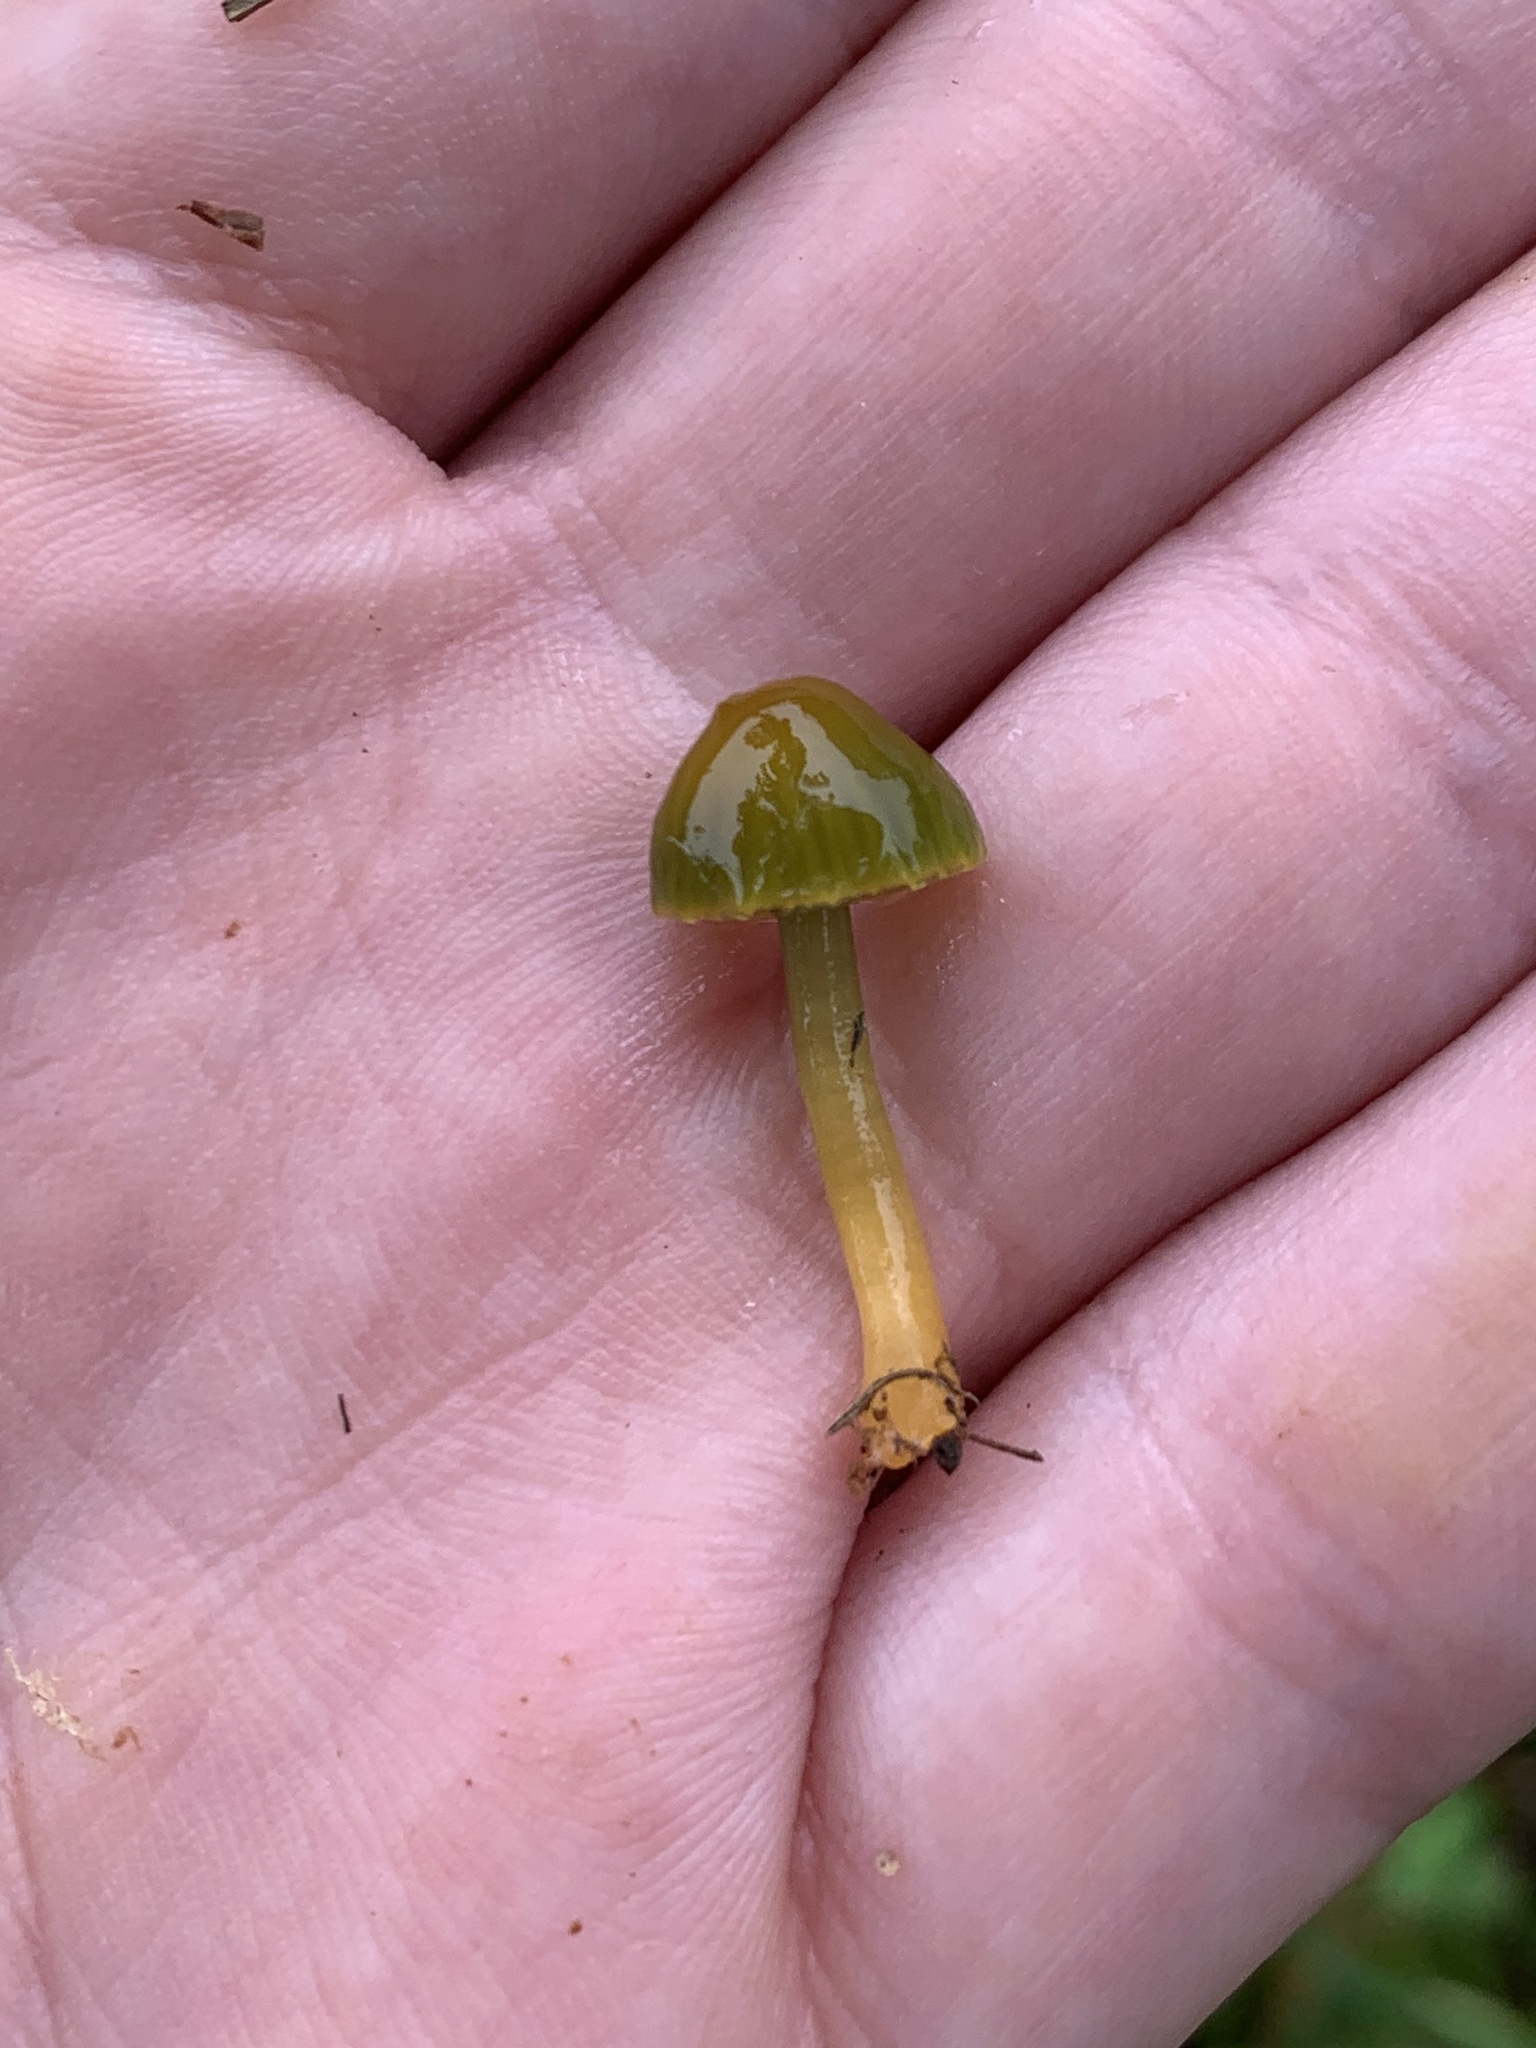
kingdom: Fungi
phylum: Basidiomycota
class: Agaricomycetes
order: Agaricales
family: Hygrophoraceae
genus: Gliophorus
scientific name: Gliophorus psittacinus
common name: Parrot wax-cap
